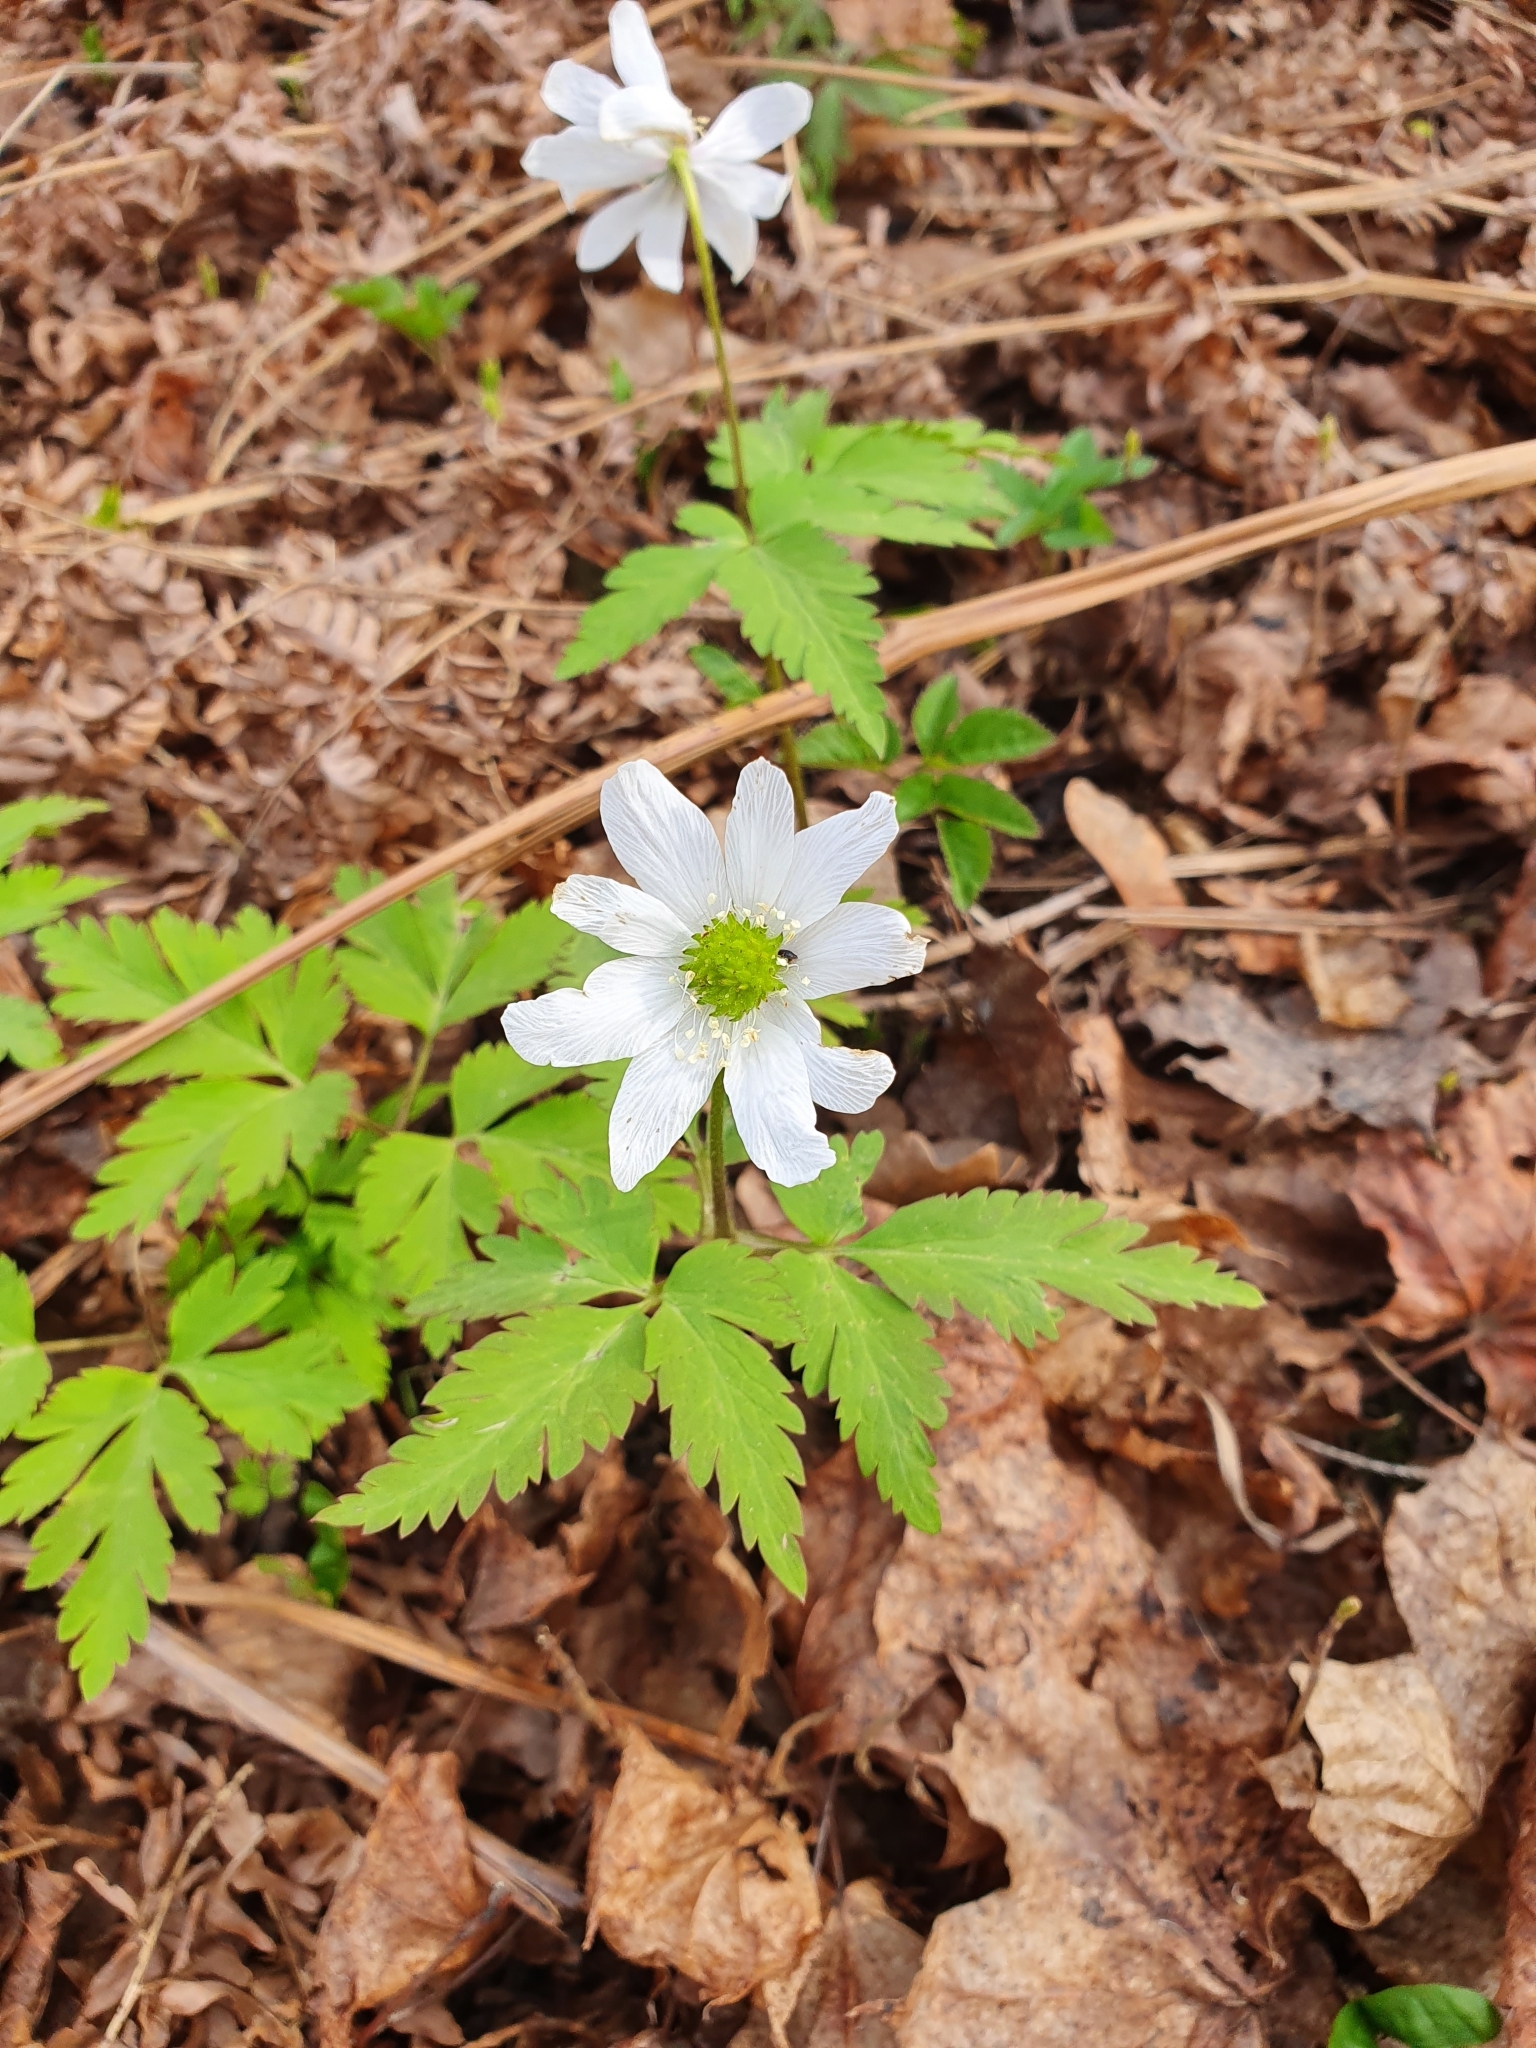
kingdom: Plantae
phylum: Tracheophyta
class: Magnoliopsida
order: Ranunculales
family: Ranunculaceae
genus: Anemone
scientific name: Anemone altaica
